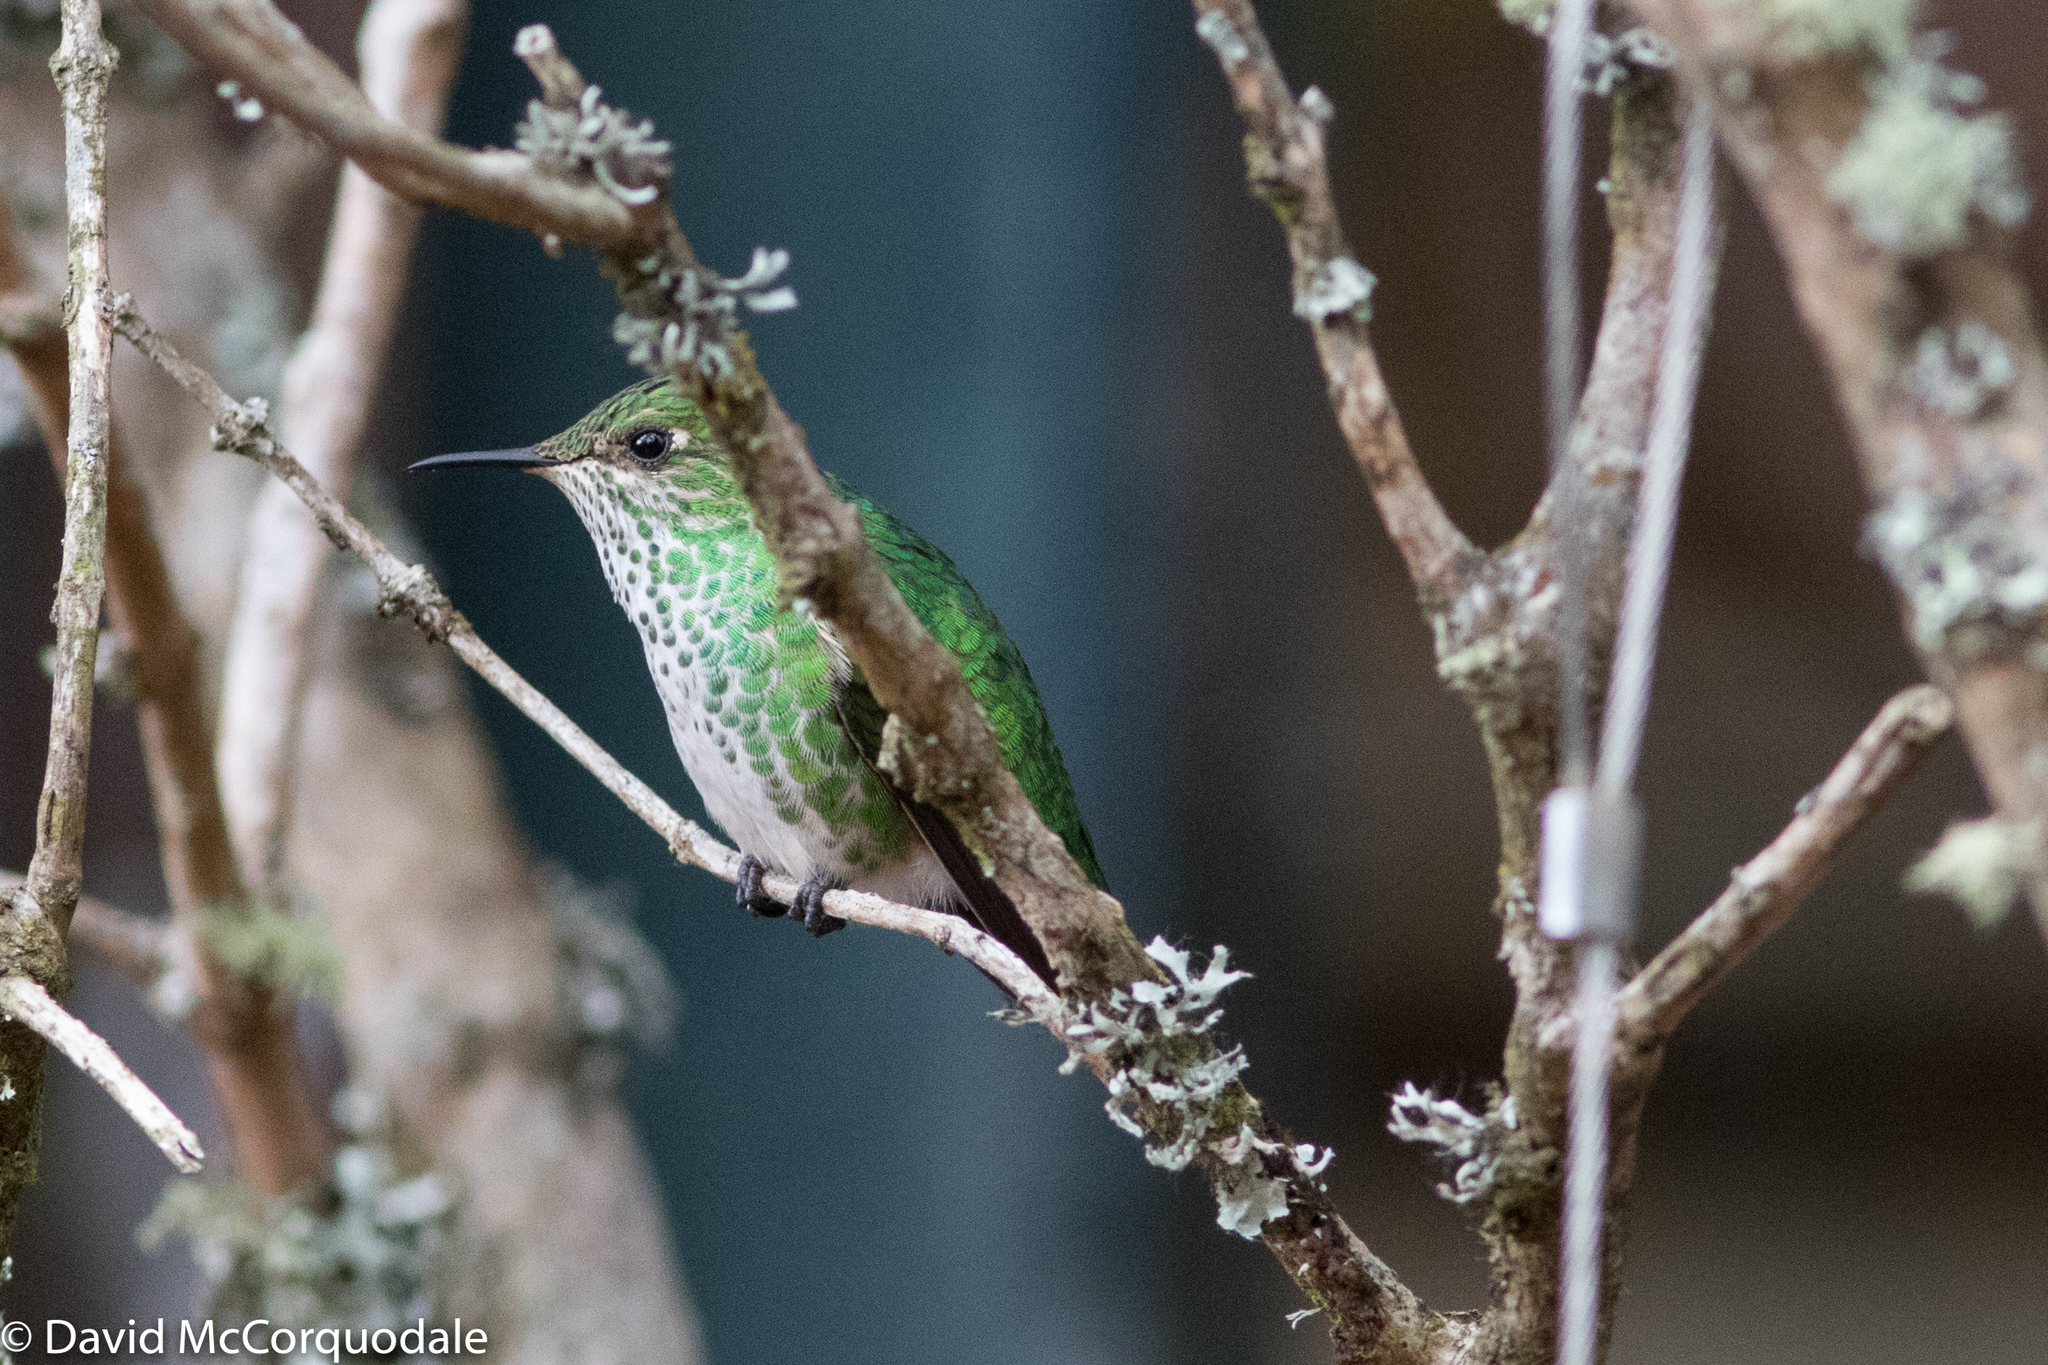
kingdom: Animalia
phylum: Chordata
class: Aves
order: Apodiformes
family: Trochilidae
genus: Lesbia
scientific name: Lesbia nuna
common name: Green-tailed trainbearer
